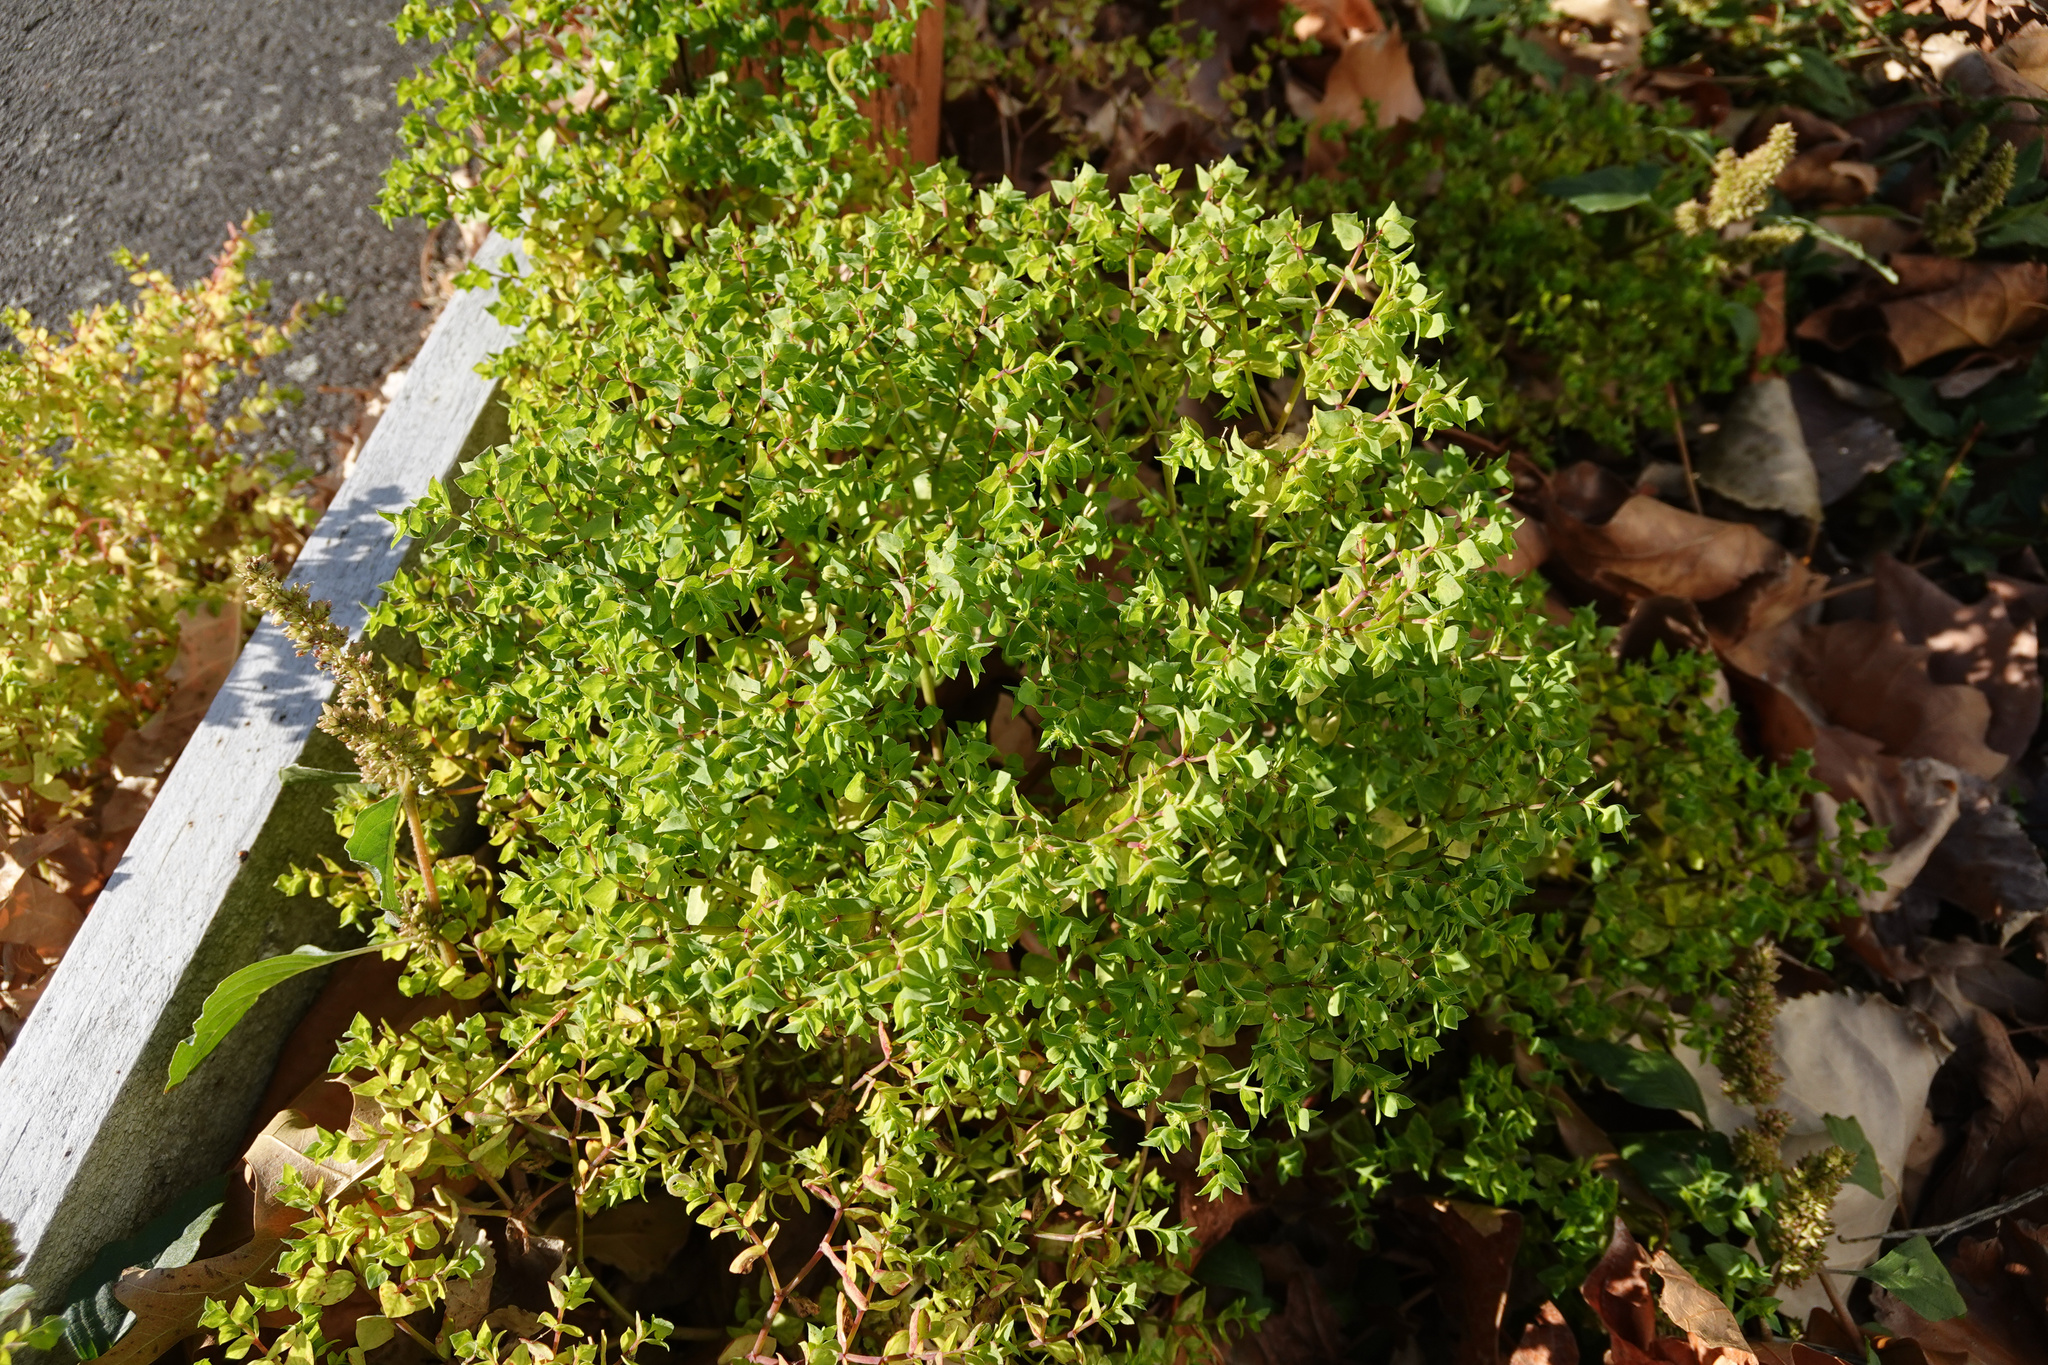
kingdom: Plantae
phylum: Tracheophyta
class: Magnoliopsida
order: Malpighiales
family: Euphorbiaceae
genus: Euphorbia
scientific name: Euphorbia peplus
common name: Petty spurge
